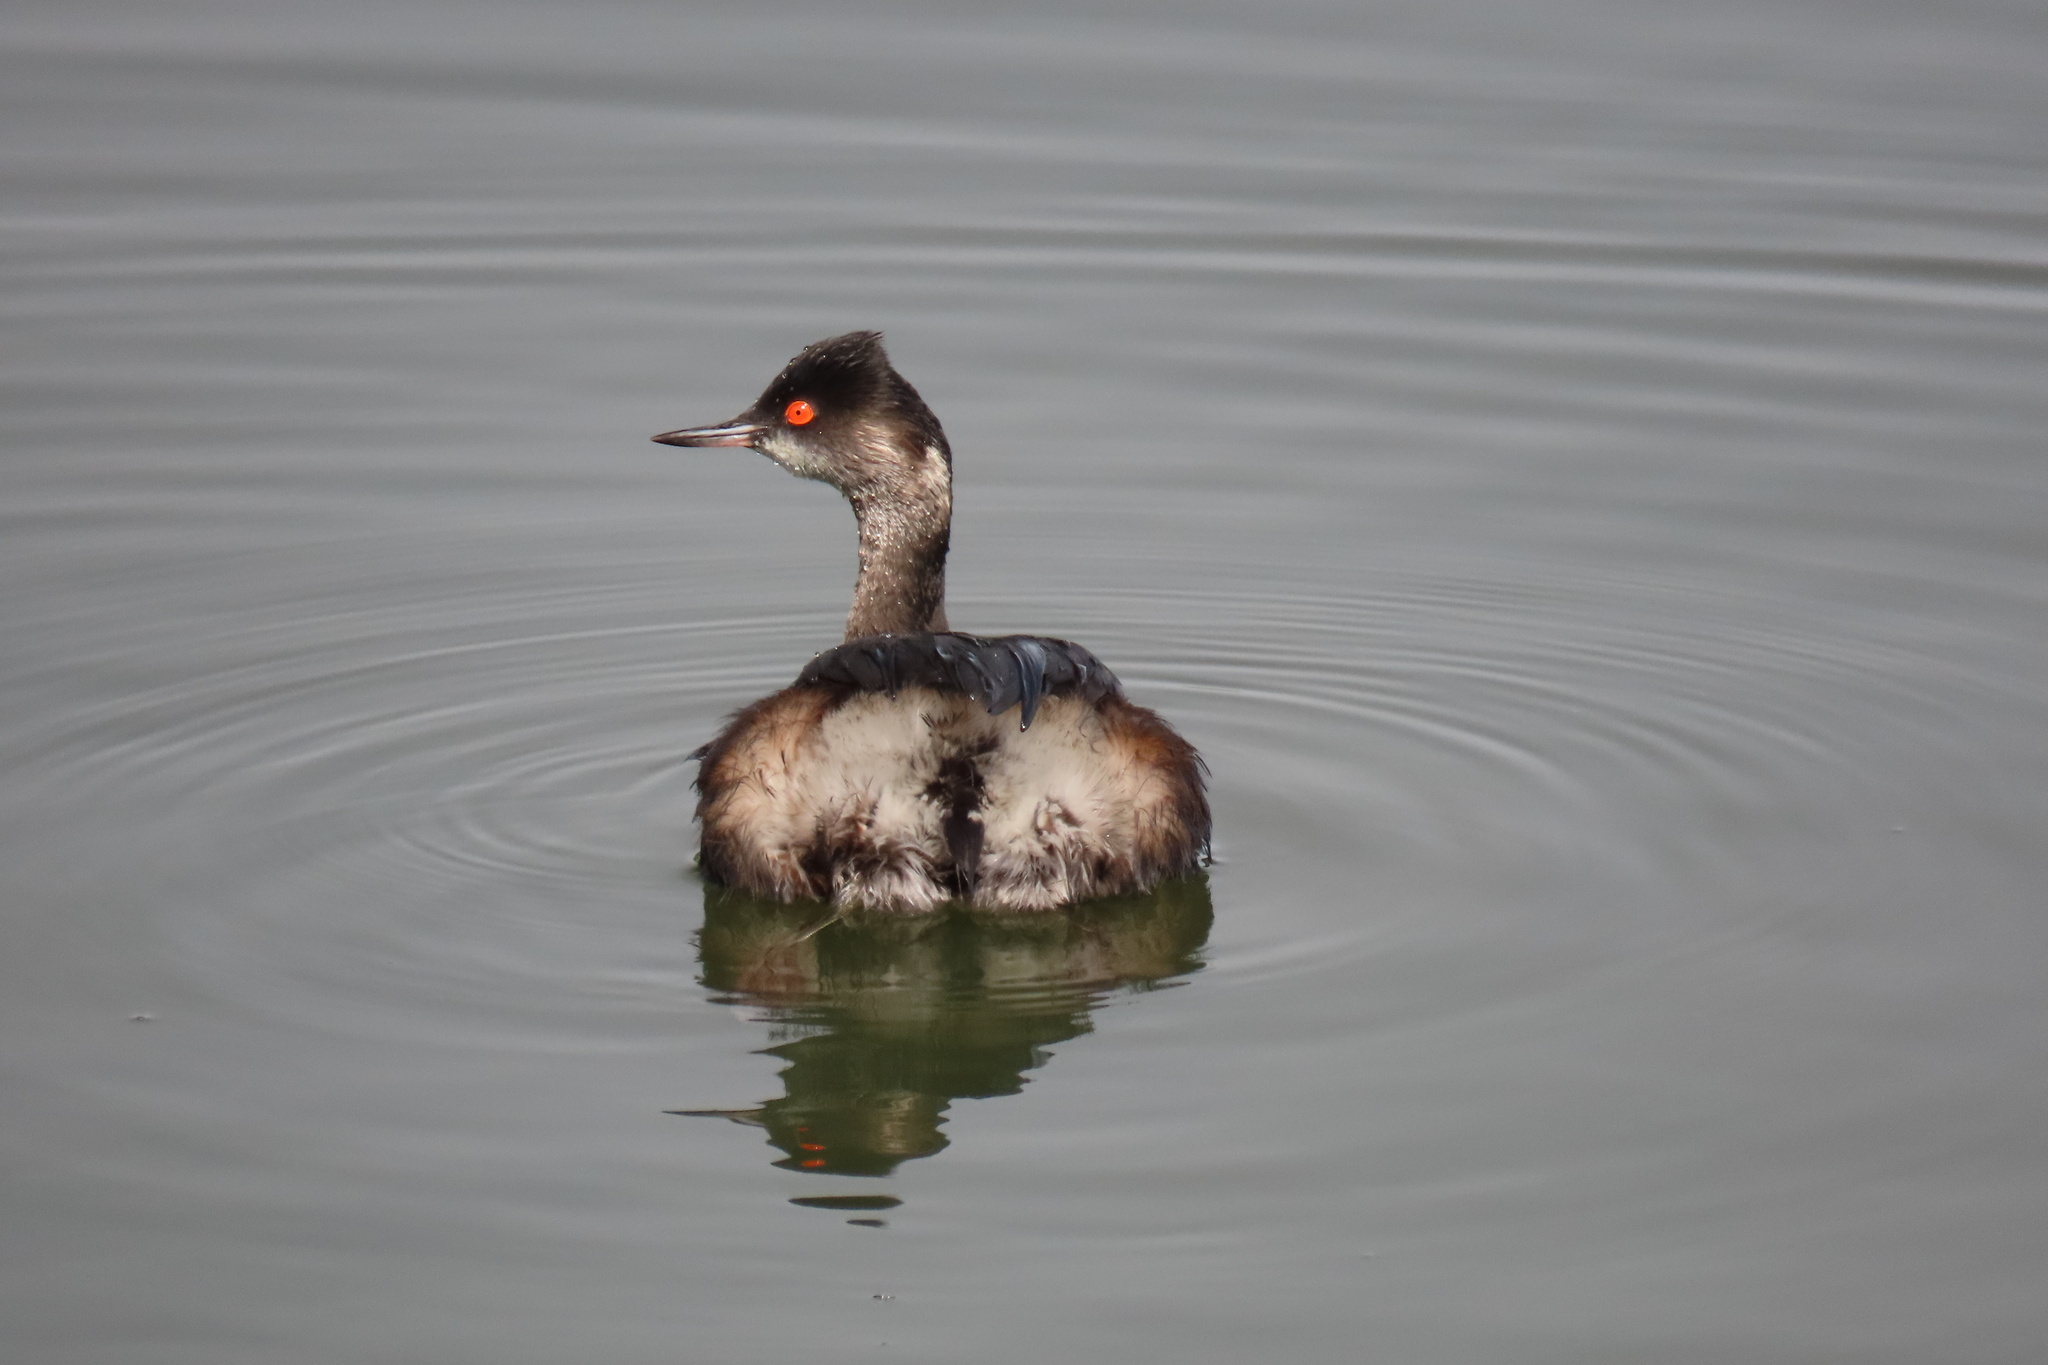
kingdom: Animalia
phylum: Chordata
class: Aves
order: Podicipediformes
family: Podicipedidae
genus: Podiceps
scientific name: Podiceps nigricollis
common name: Black-necked grebe
